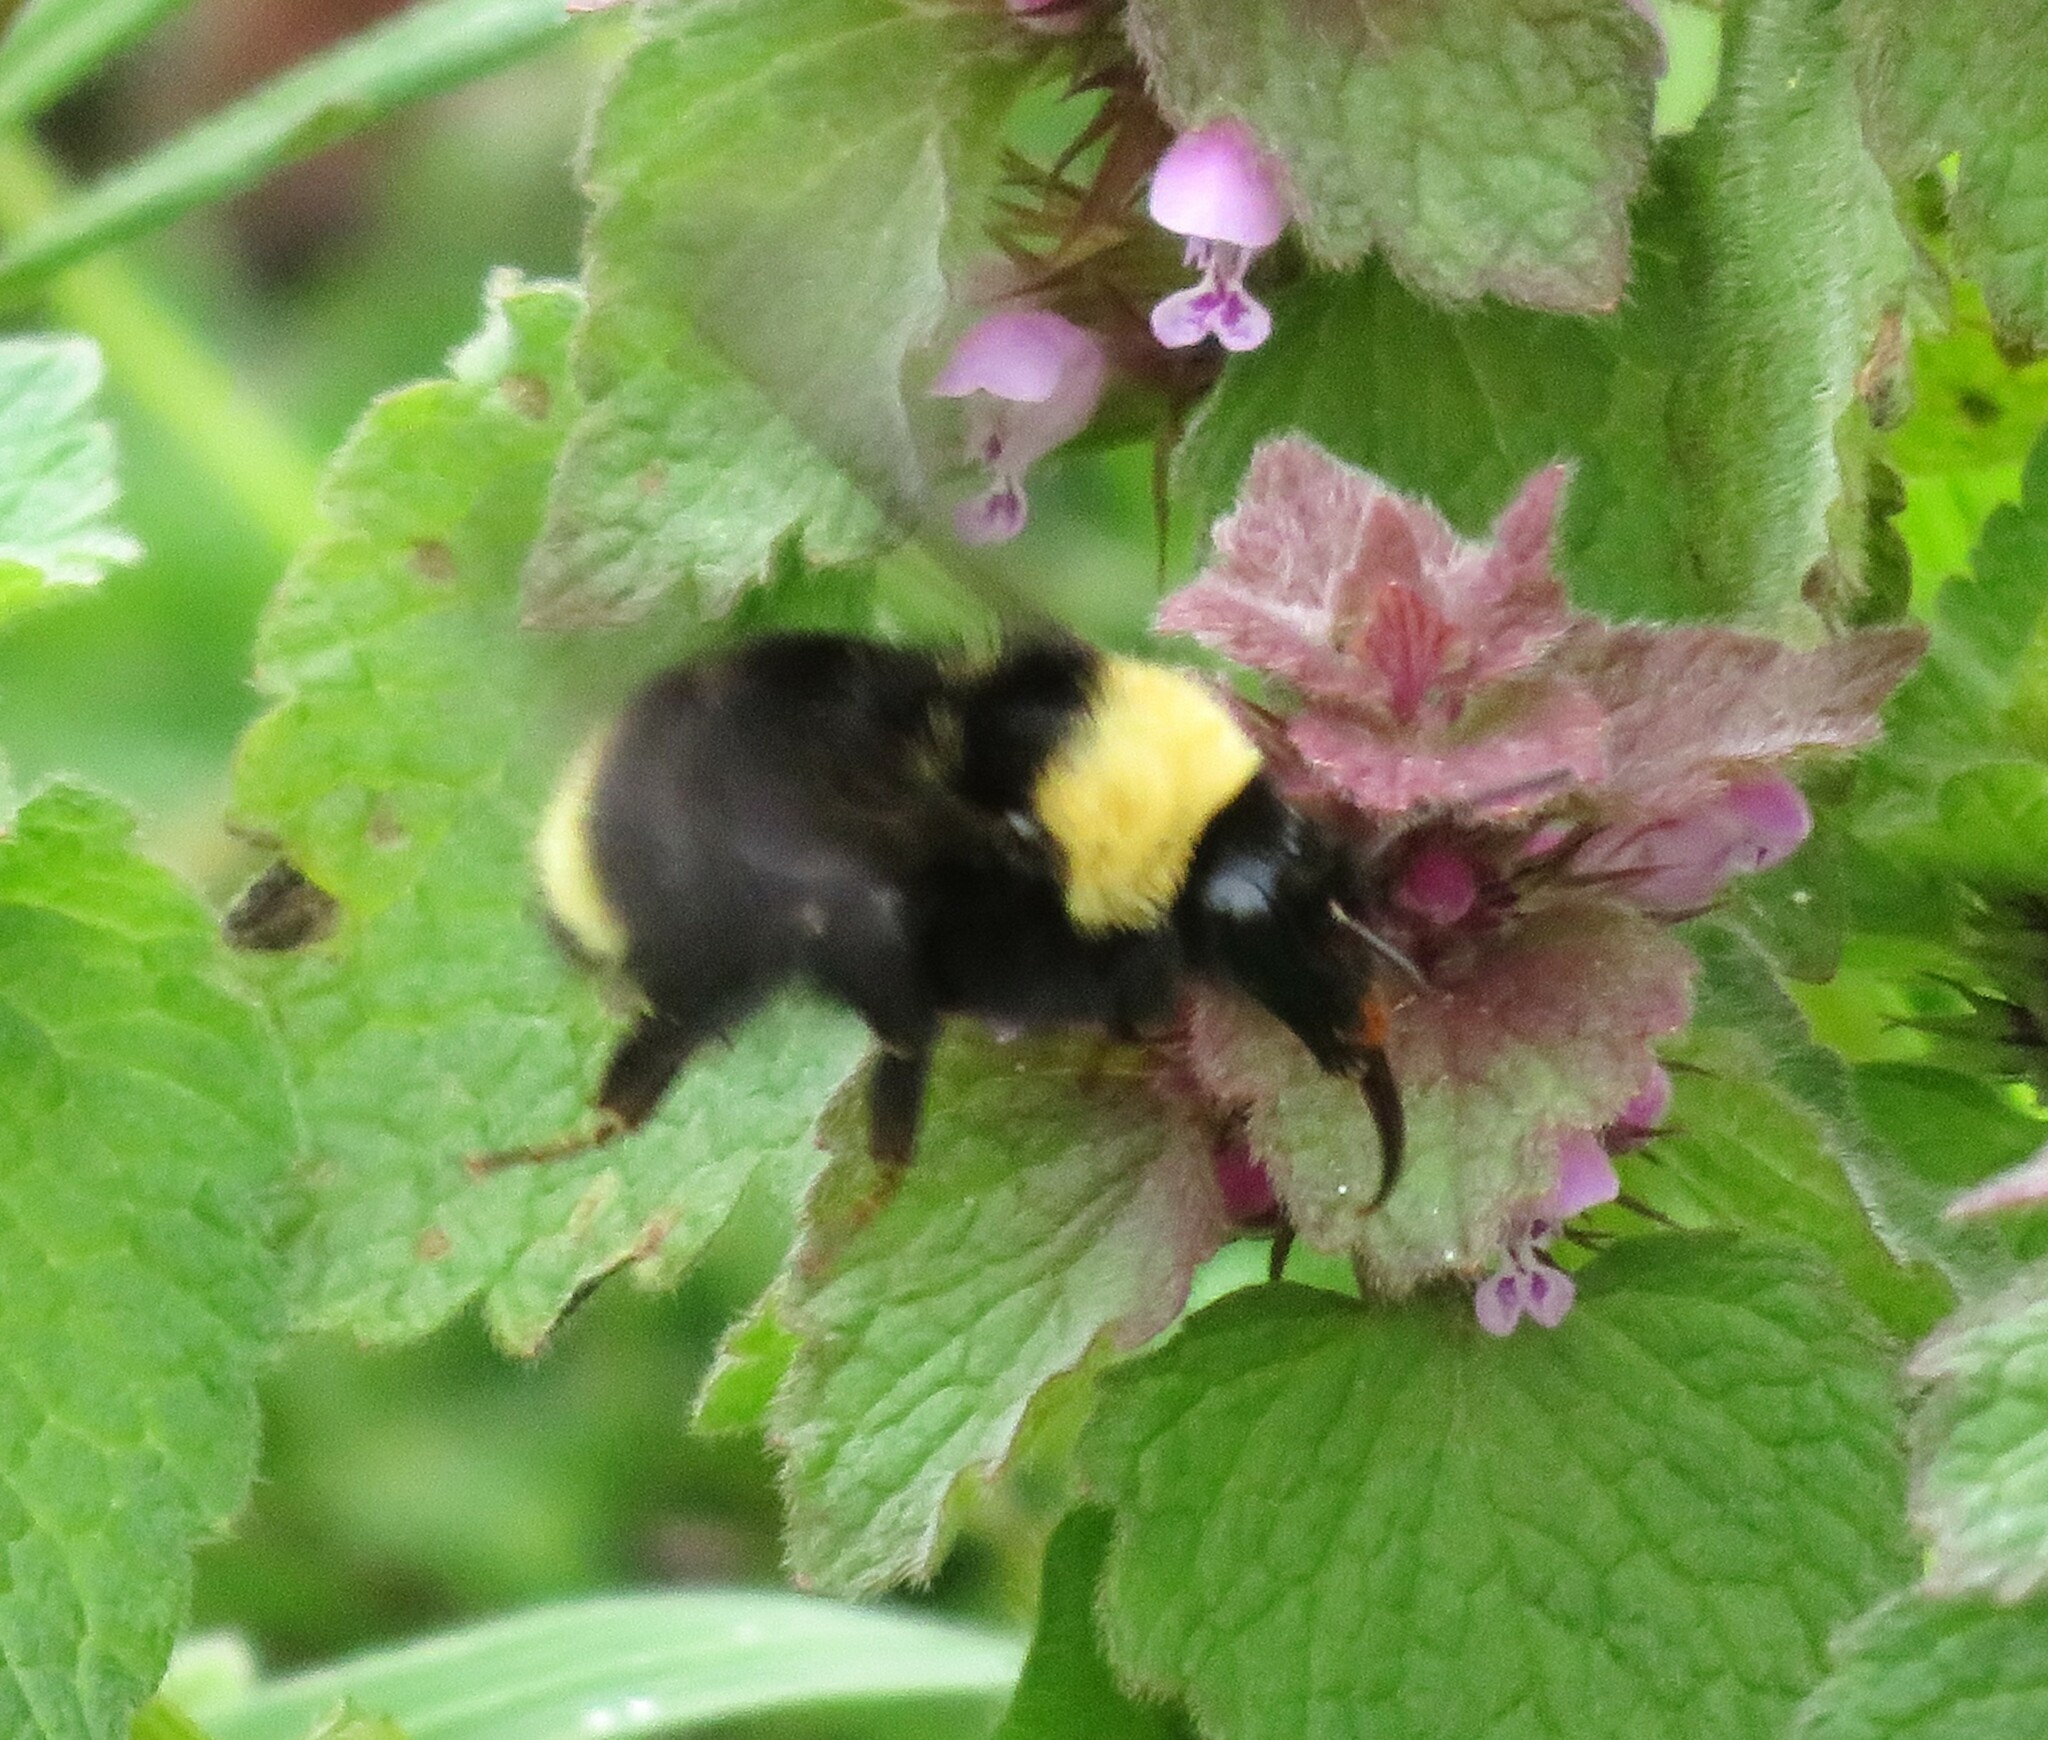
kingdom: Animalia
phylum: Arthropoda
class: Insecta
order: Hymenoptera
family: Apidae
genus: Bombus
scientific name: Bombus californicus
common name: California bumble bee
